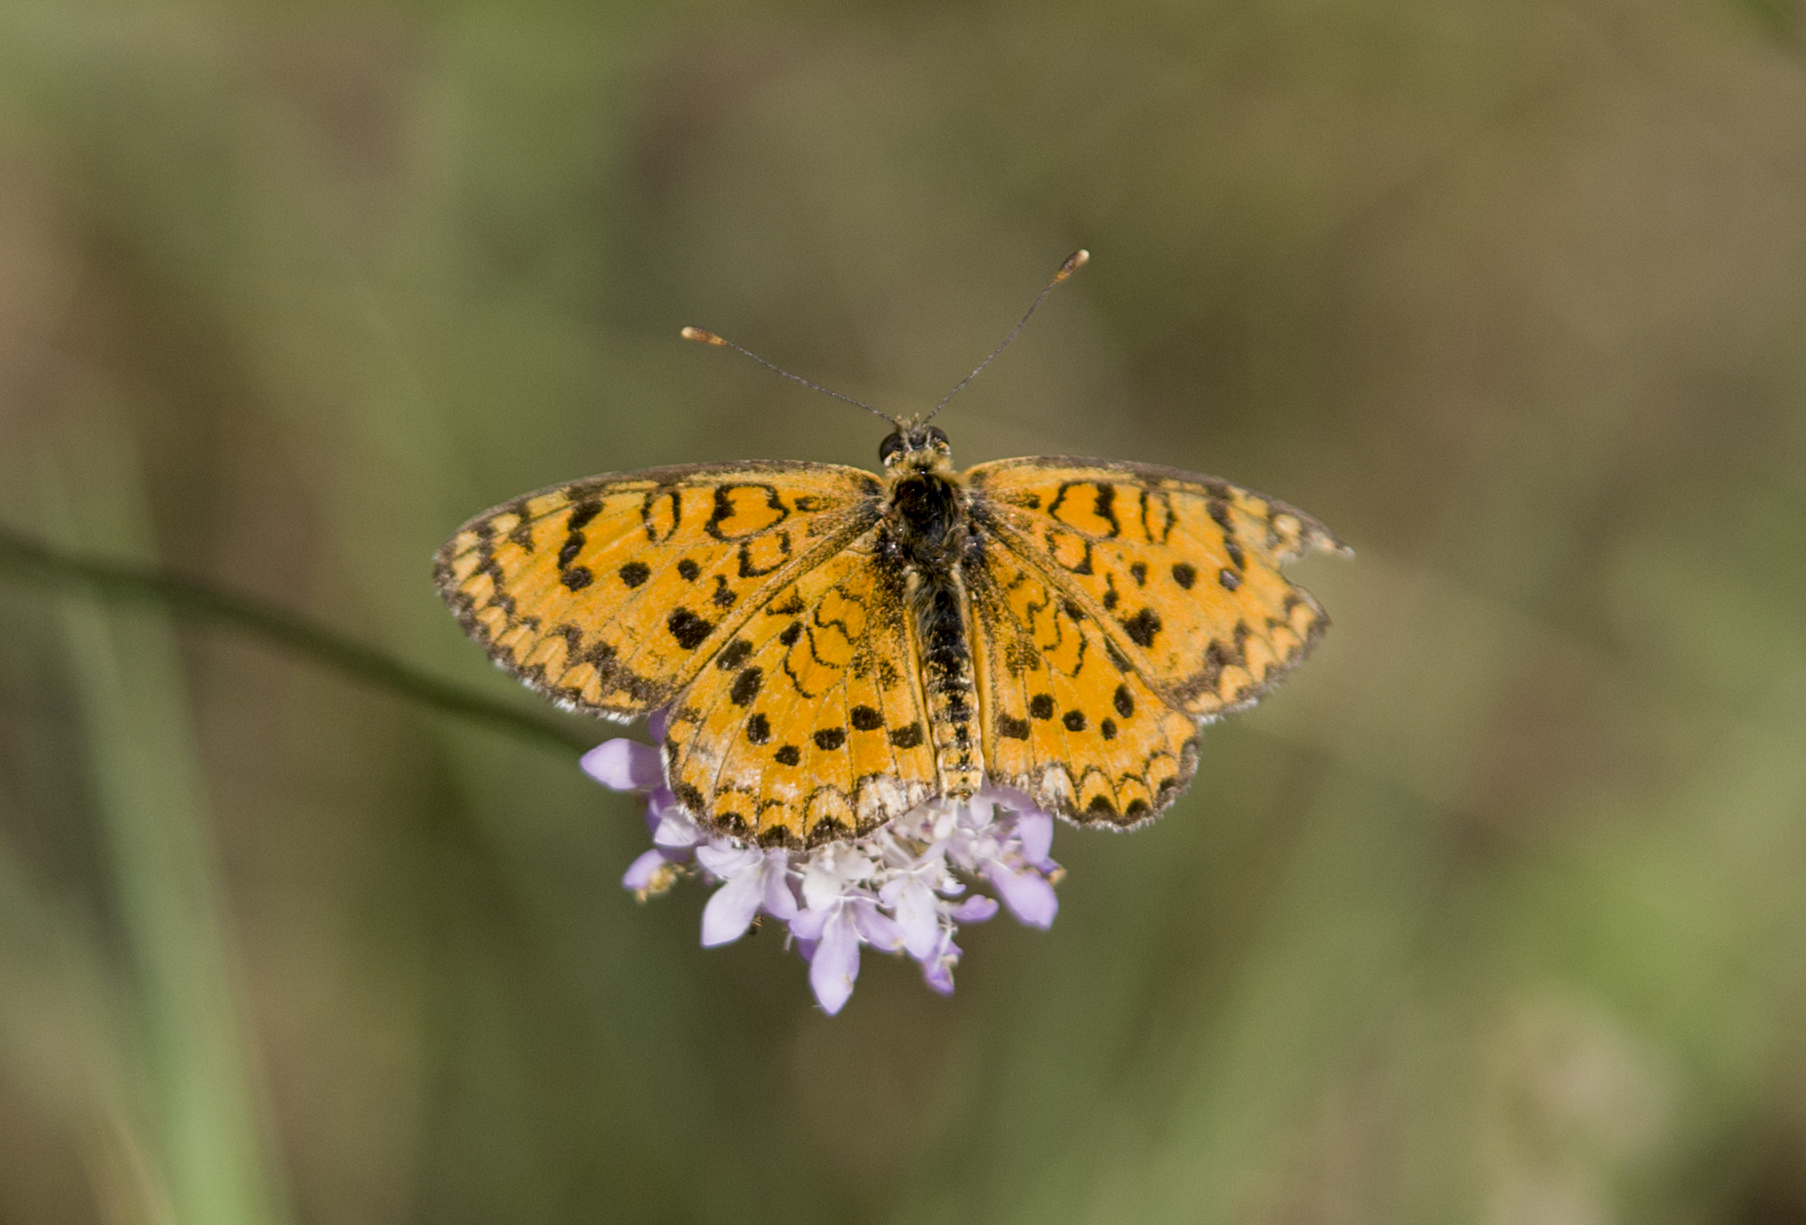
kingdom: Animalia
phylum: Arthropoda
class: Insecta
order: Lepidoptera
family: Nymphalidae
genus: Melitaea
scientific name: Melitaea trivia
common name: Lesser spotted fritillary
